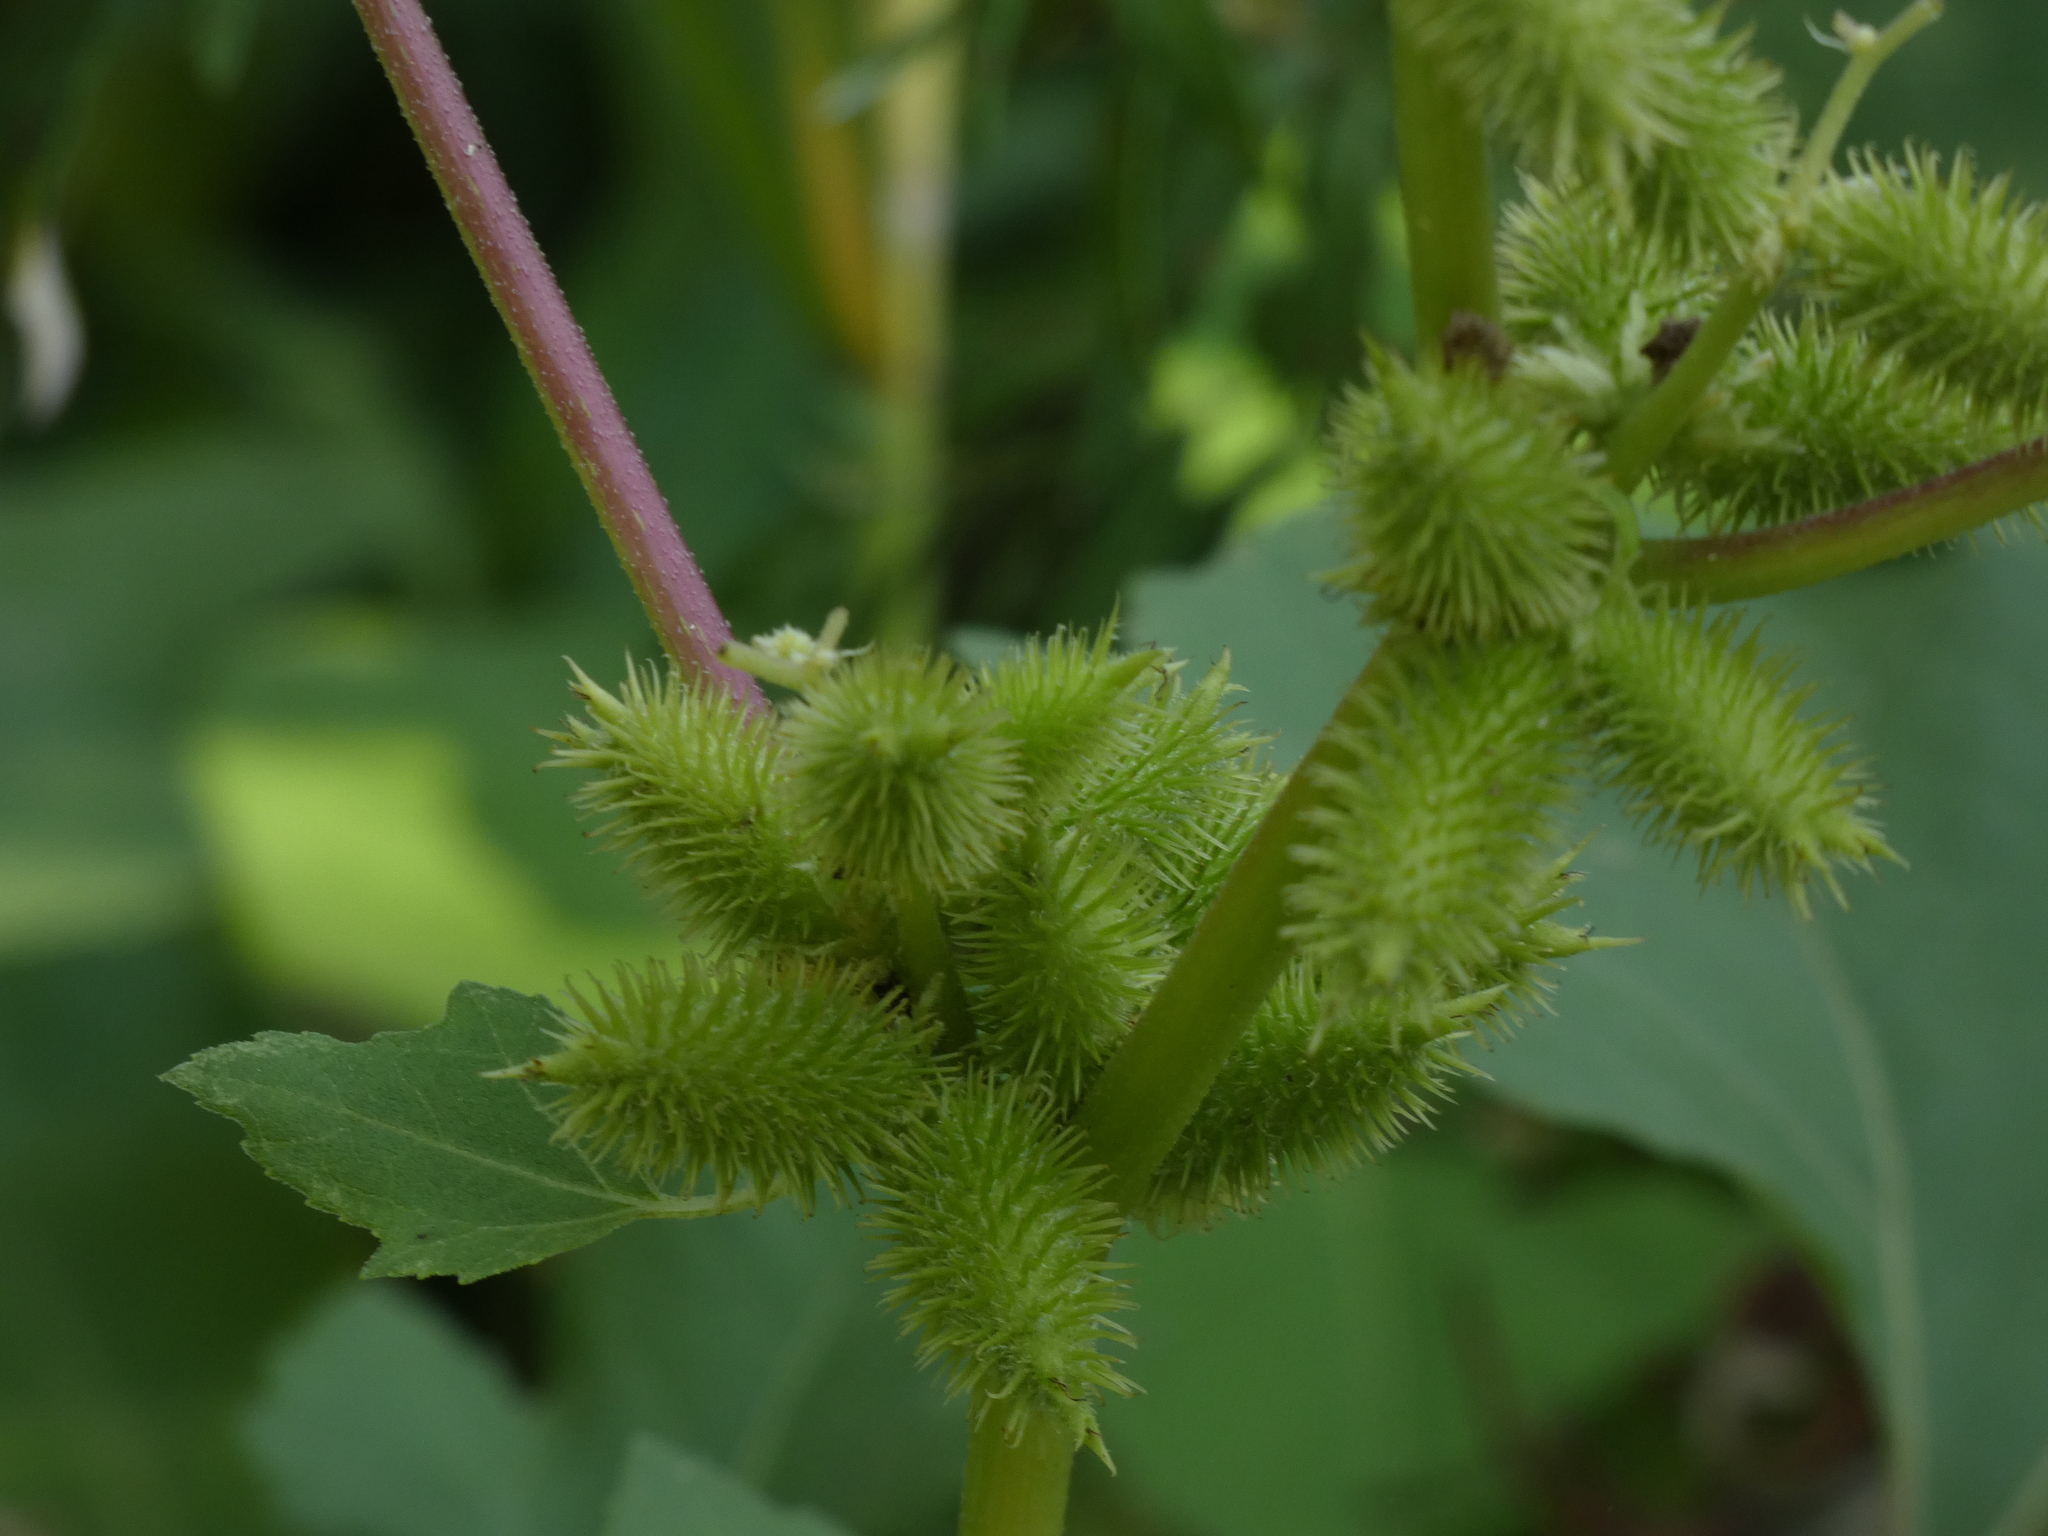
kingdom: Plantae
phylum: Tracheophyta
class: Magnoliopsida
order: Asterales
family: Asteraceae
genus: Xanthium
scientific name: Xanthium strumarium
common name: Rough cocklebur
